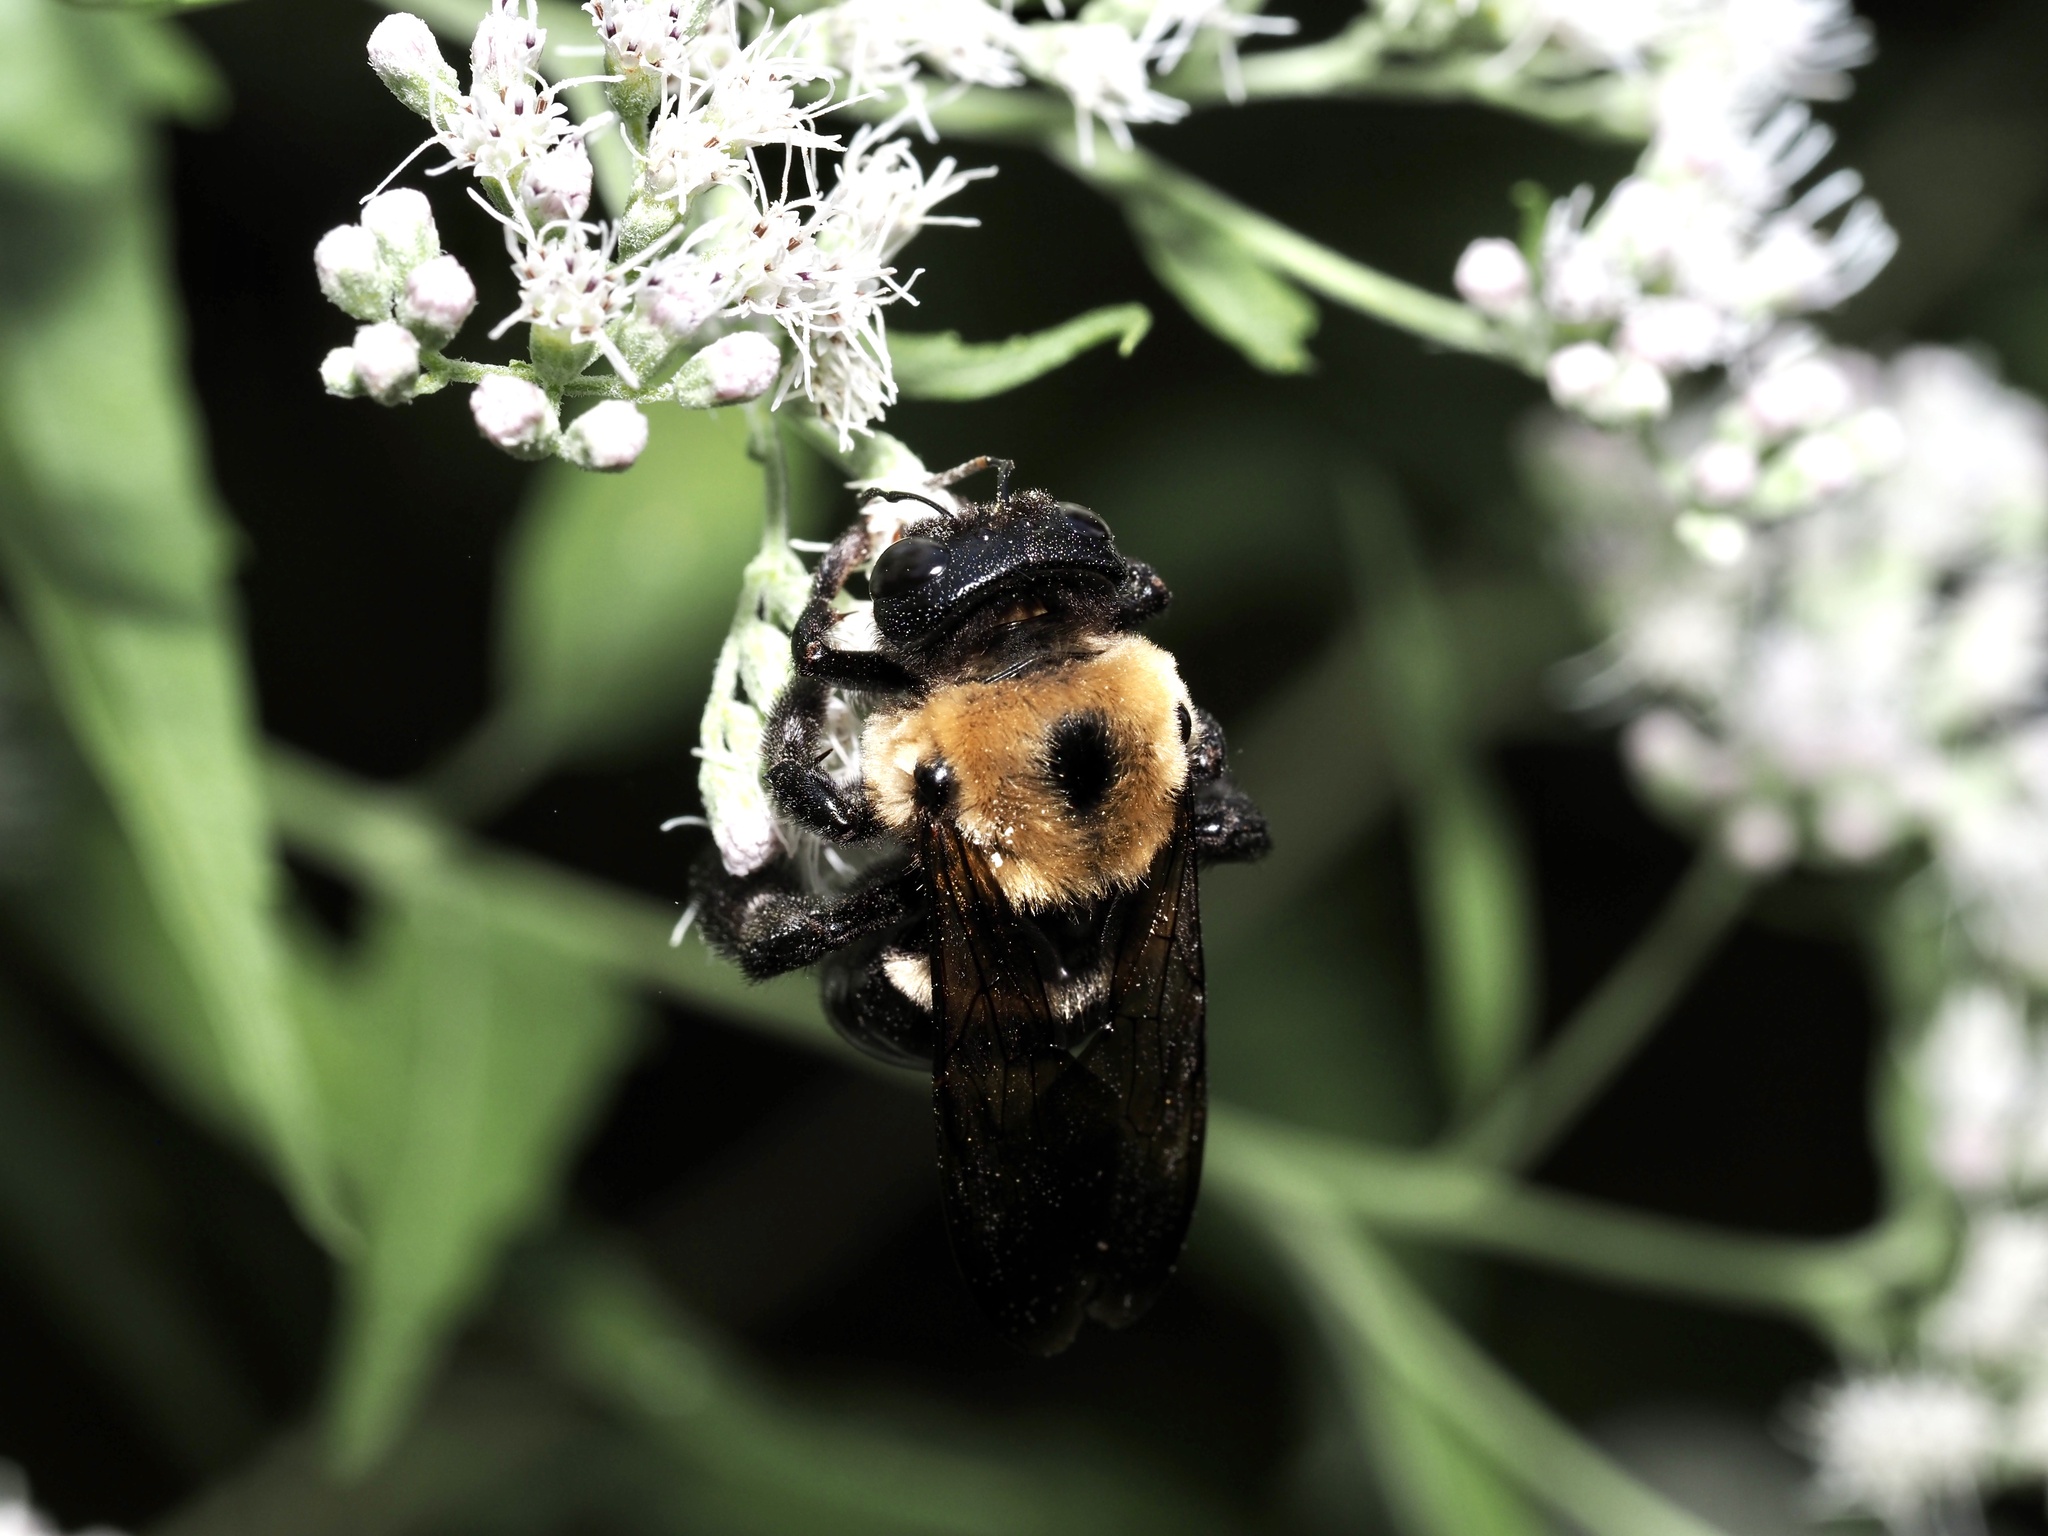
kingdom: Animalia
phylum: Arthropoda
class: Insecta
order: Hymenoptera
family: Apidae
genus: Xylocopa
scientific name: Xylocopa virginica
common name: Carpenter bee
